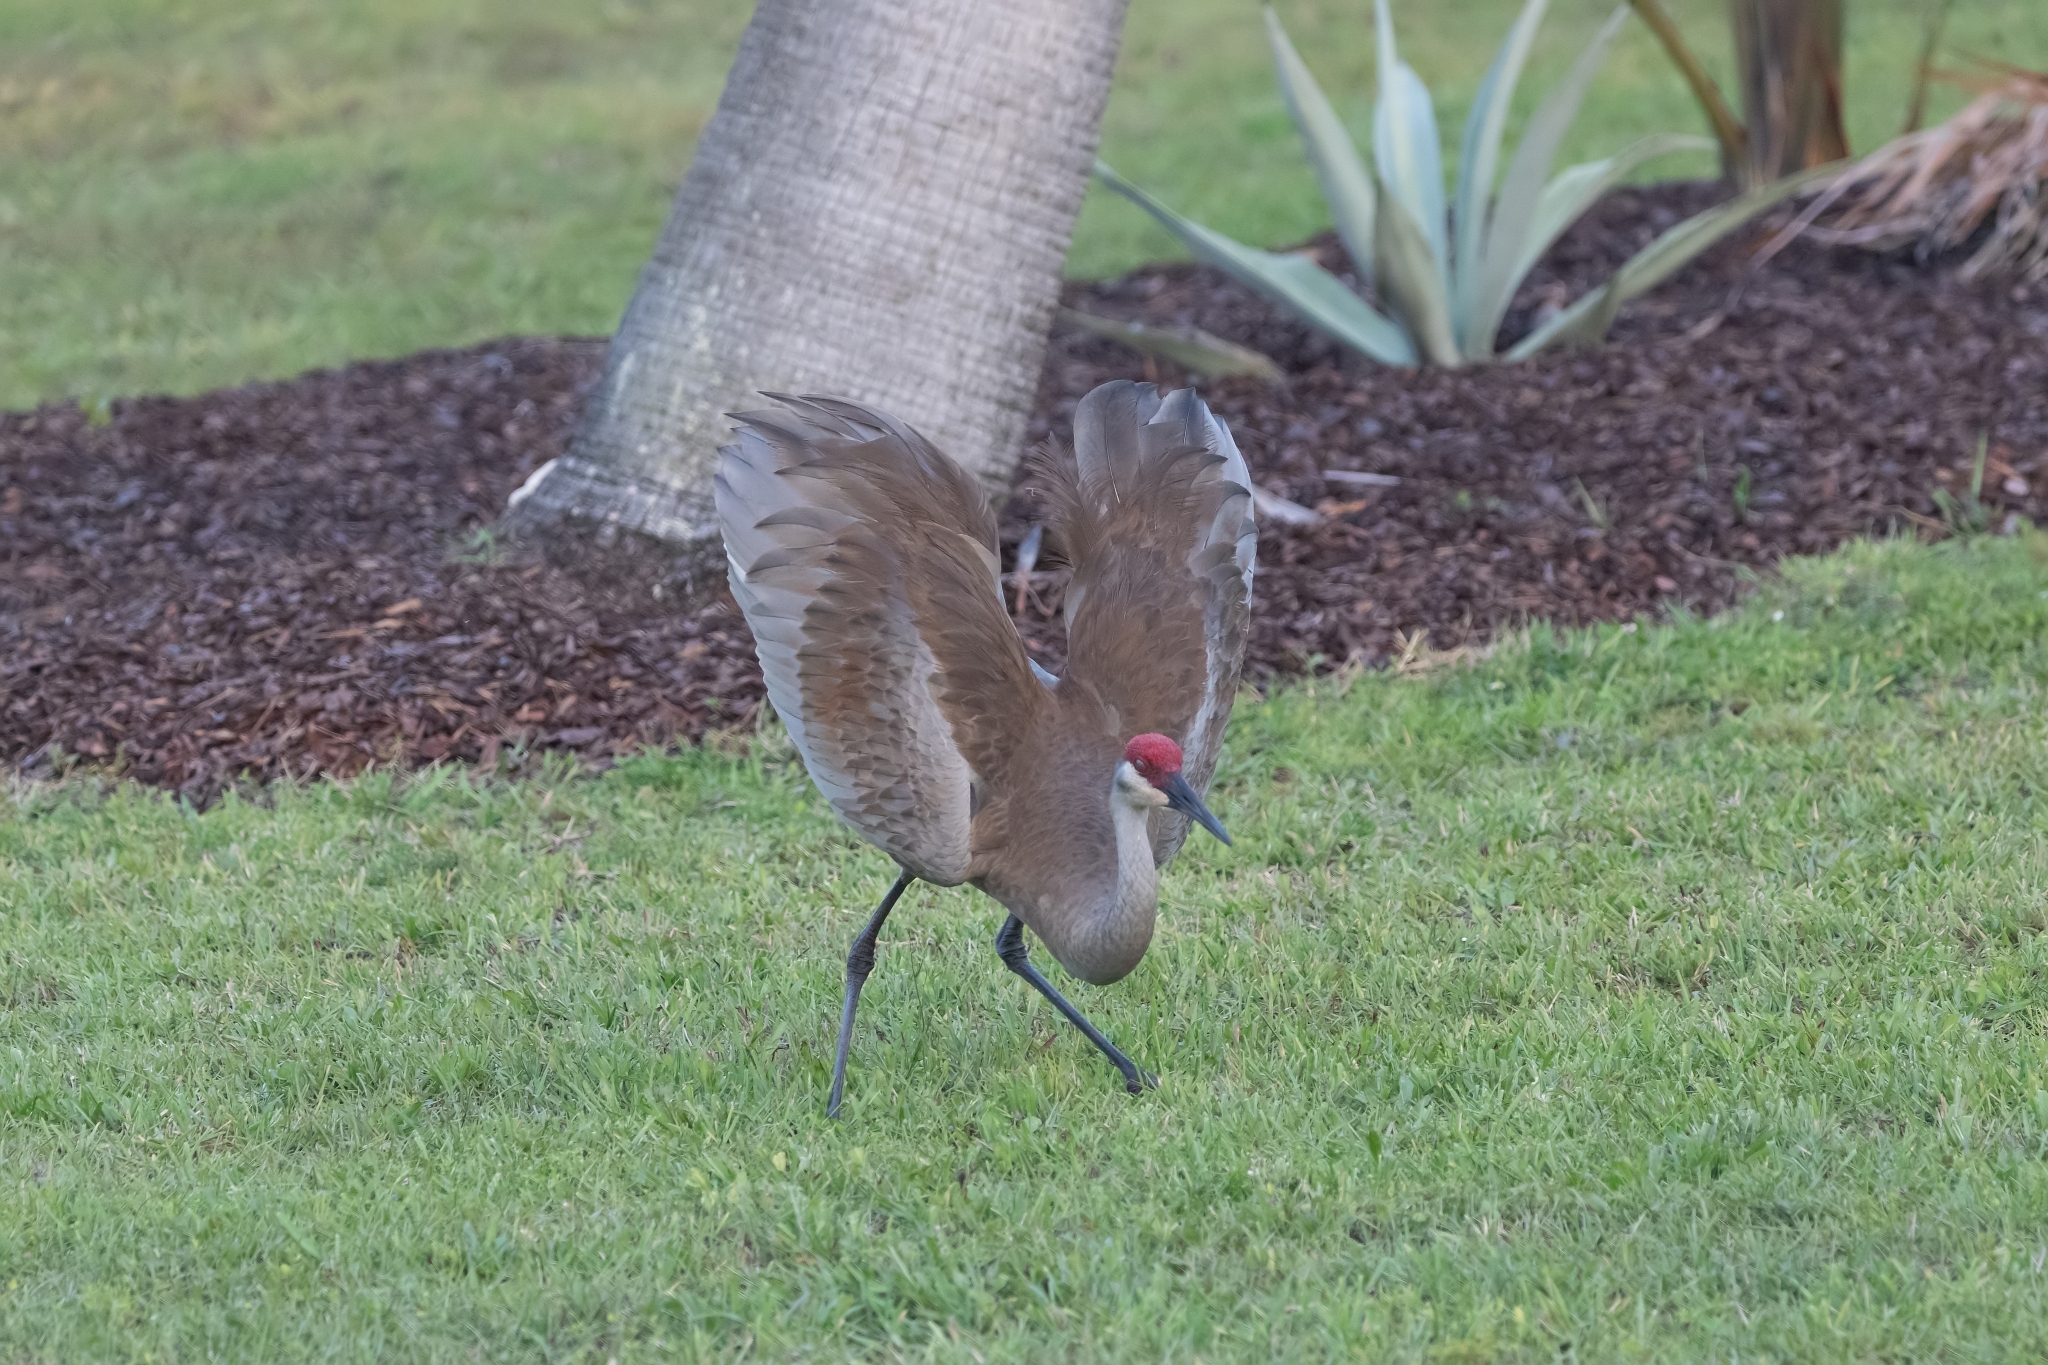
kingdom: Animalia
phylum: Chordata
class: Aves
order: Gruiformes
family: Gruidae
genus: Grus
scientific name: Grus canadensis
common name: Sandhill crane
